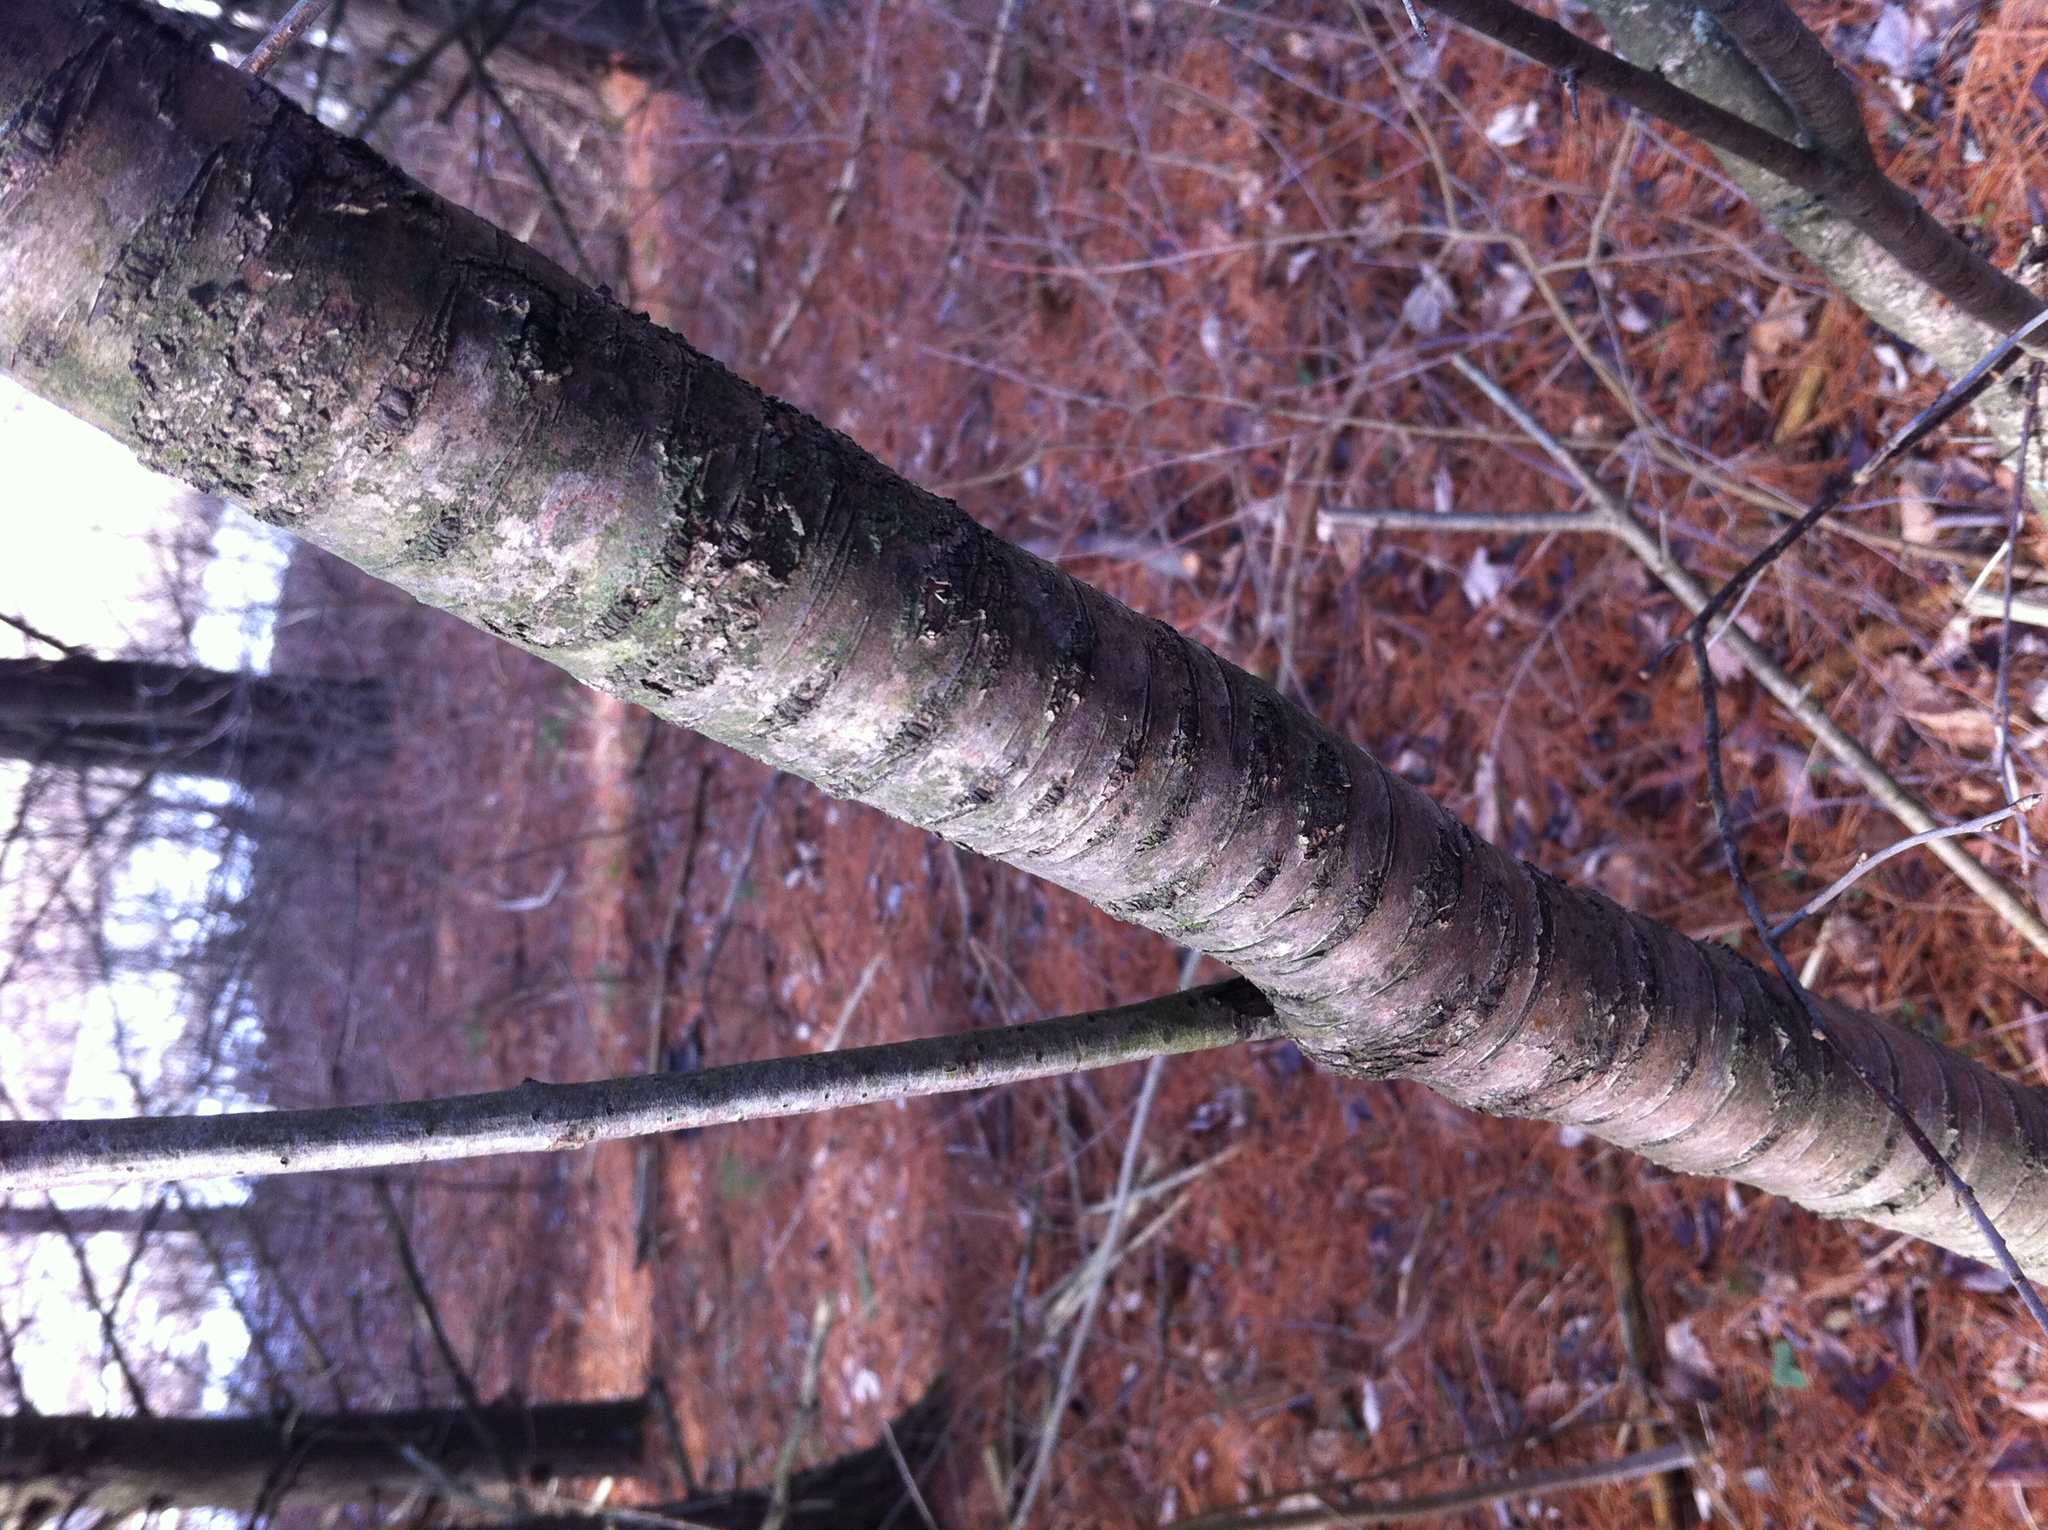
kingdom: Plantae
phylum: Tracheophyta
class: Magnoliopsida
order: Rosales
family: Rhamnaceae
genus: Rhamnus
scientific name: Rhamnus cathartica
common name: Common buckthorn
